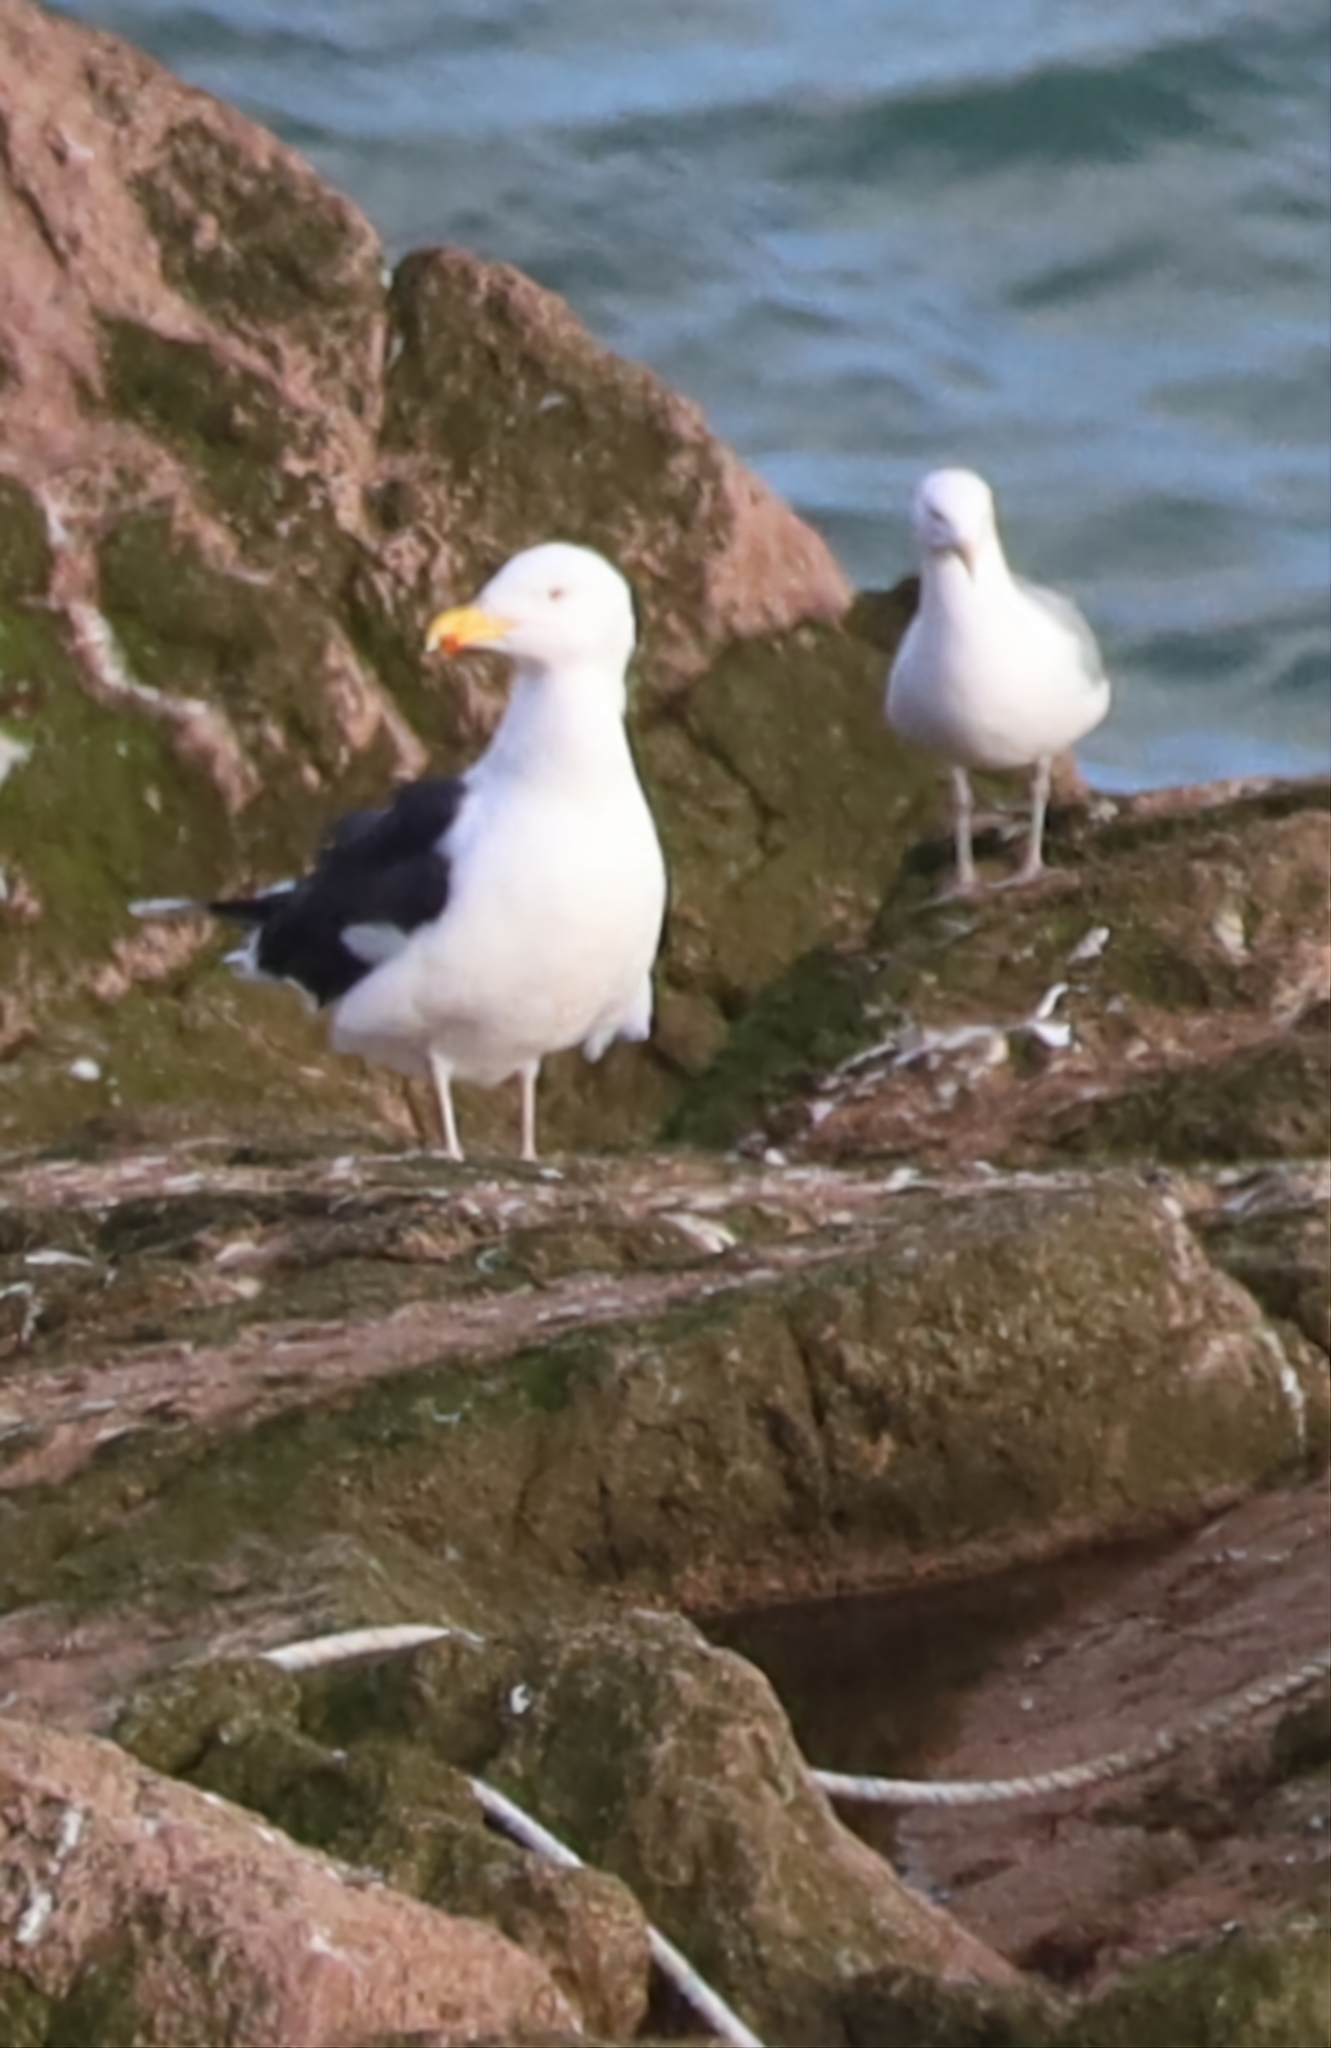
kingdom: Animalia
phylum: Chordata
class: Aves
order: Charadriiformes
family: Laridae
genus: Larus
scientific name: Larus marinus
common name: Great black-backed gull
